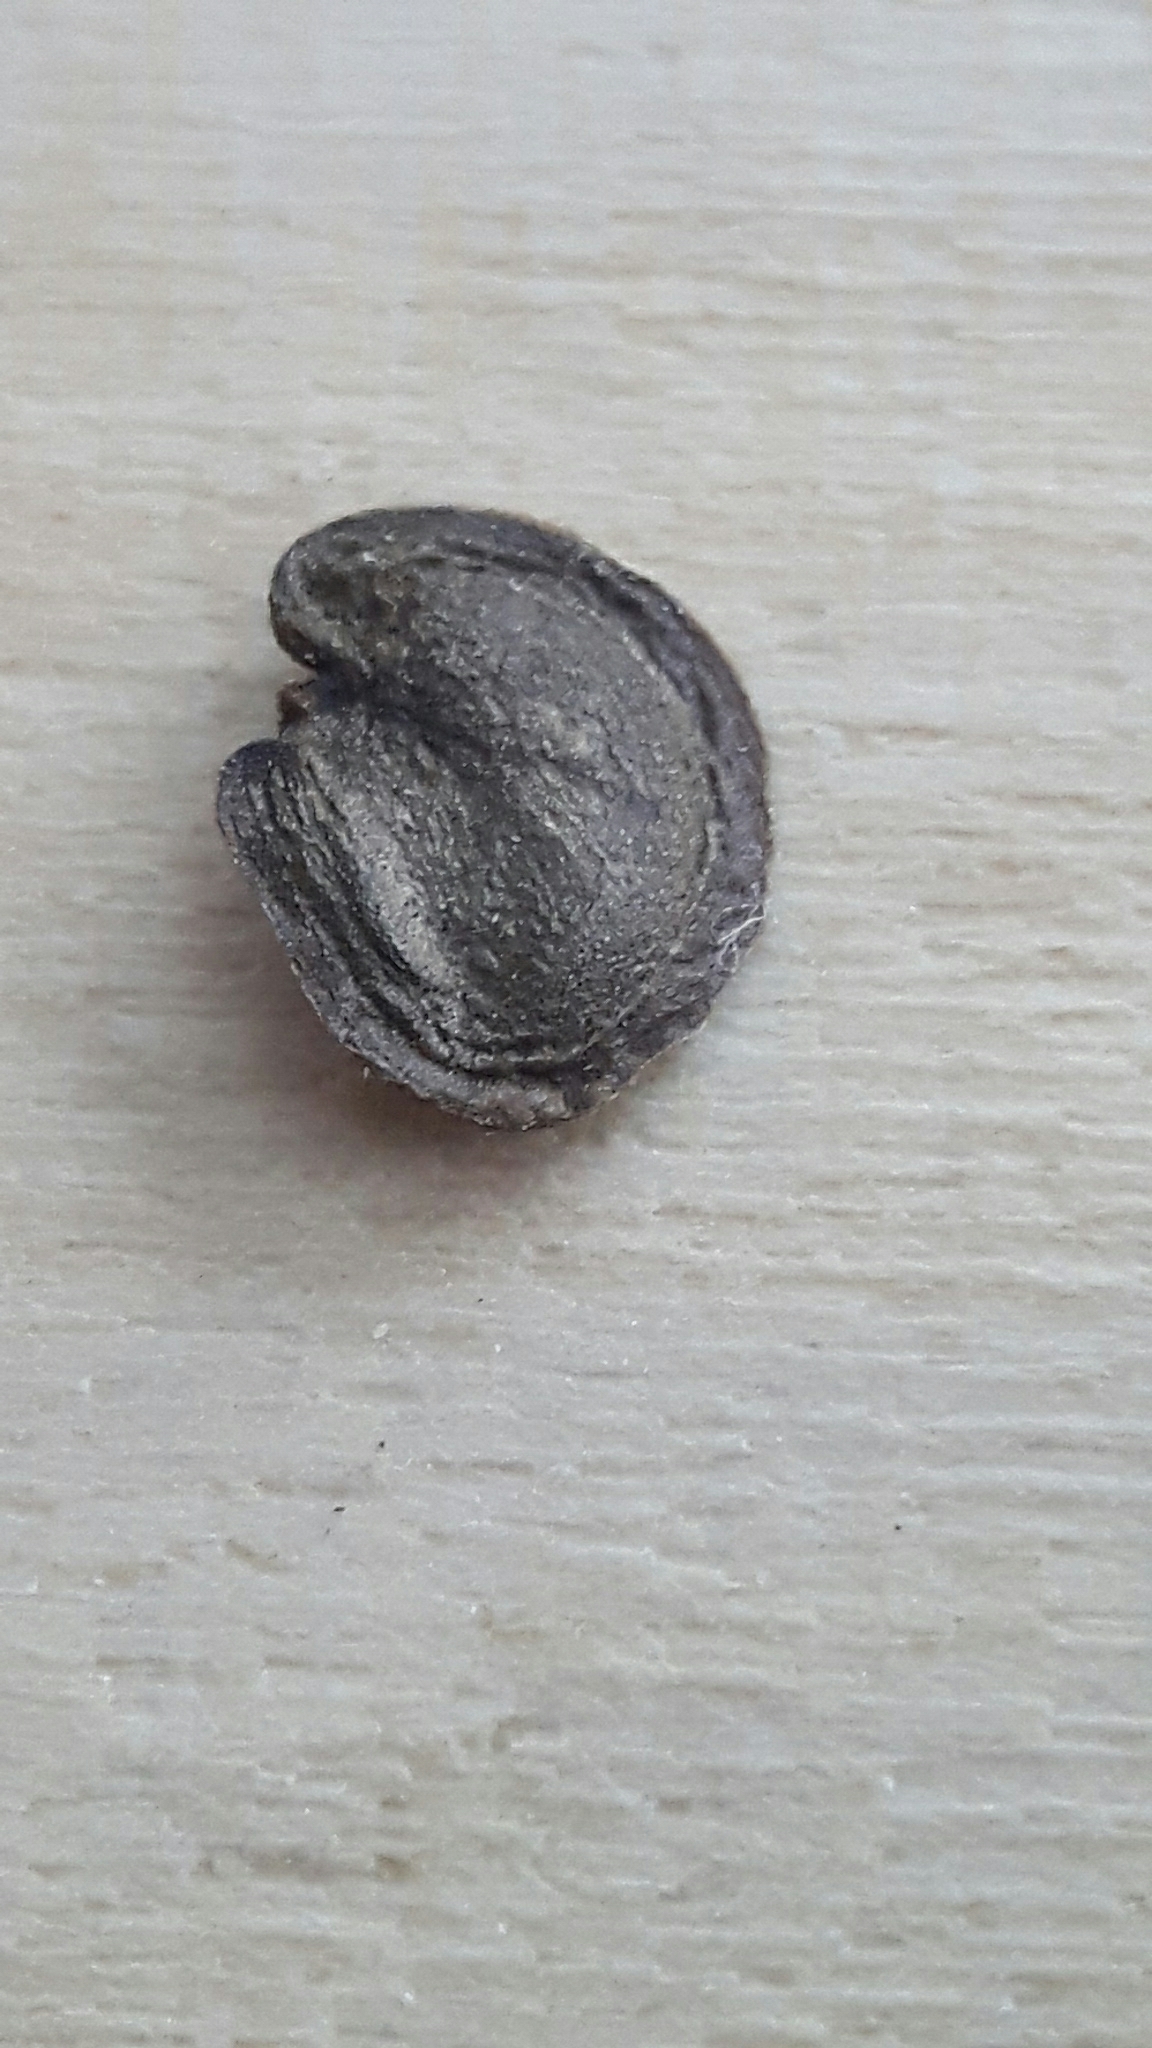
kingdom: Plantae
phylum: Tracheophyta
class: Magnoliopsida
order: Brassicales
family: Brassicaceae
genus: Lunaria
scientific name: Lunaria annua
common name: Honesty
